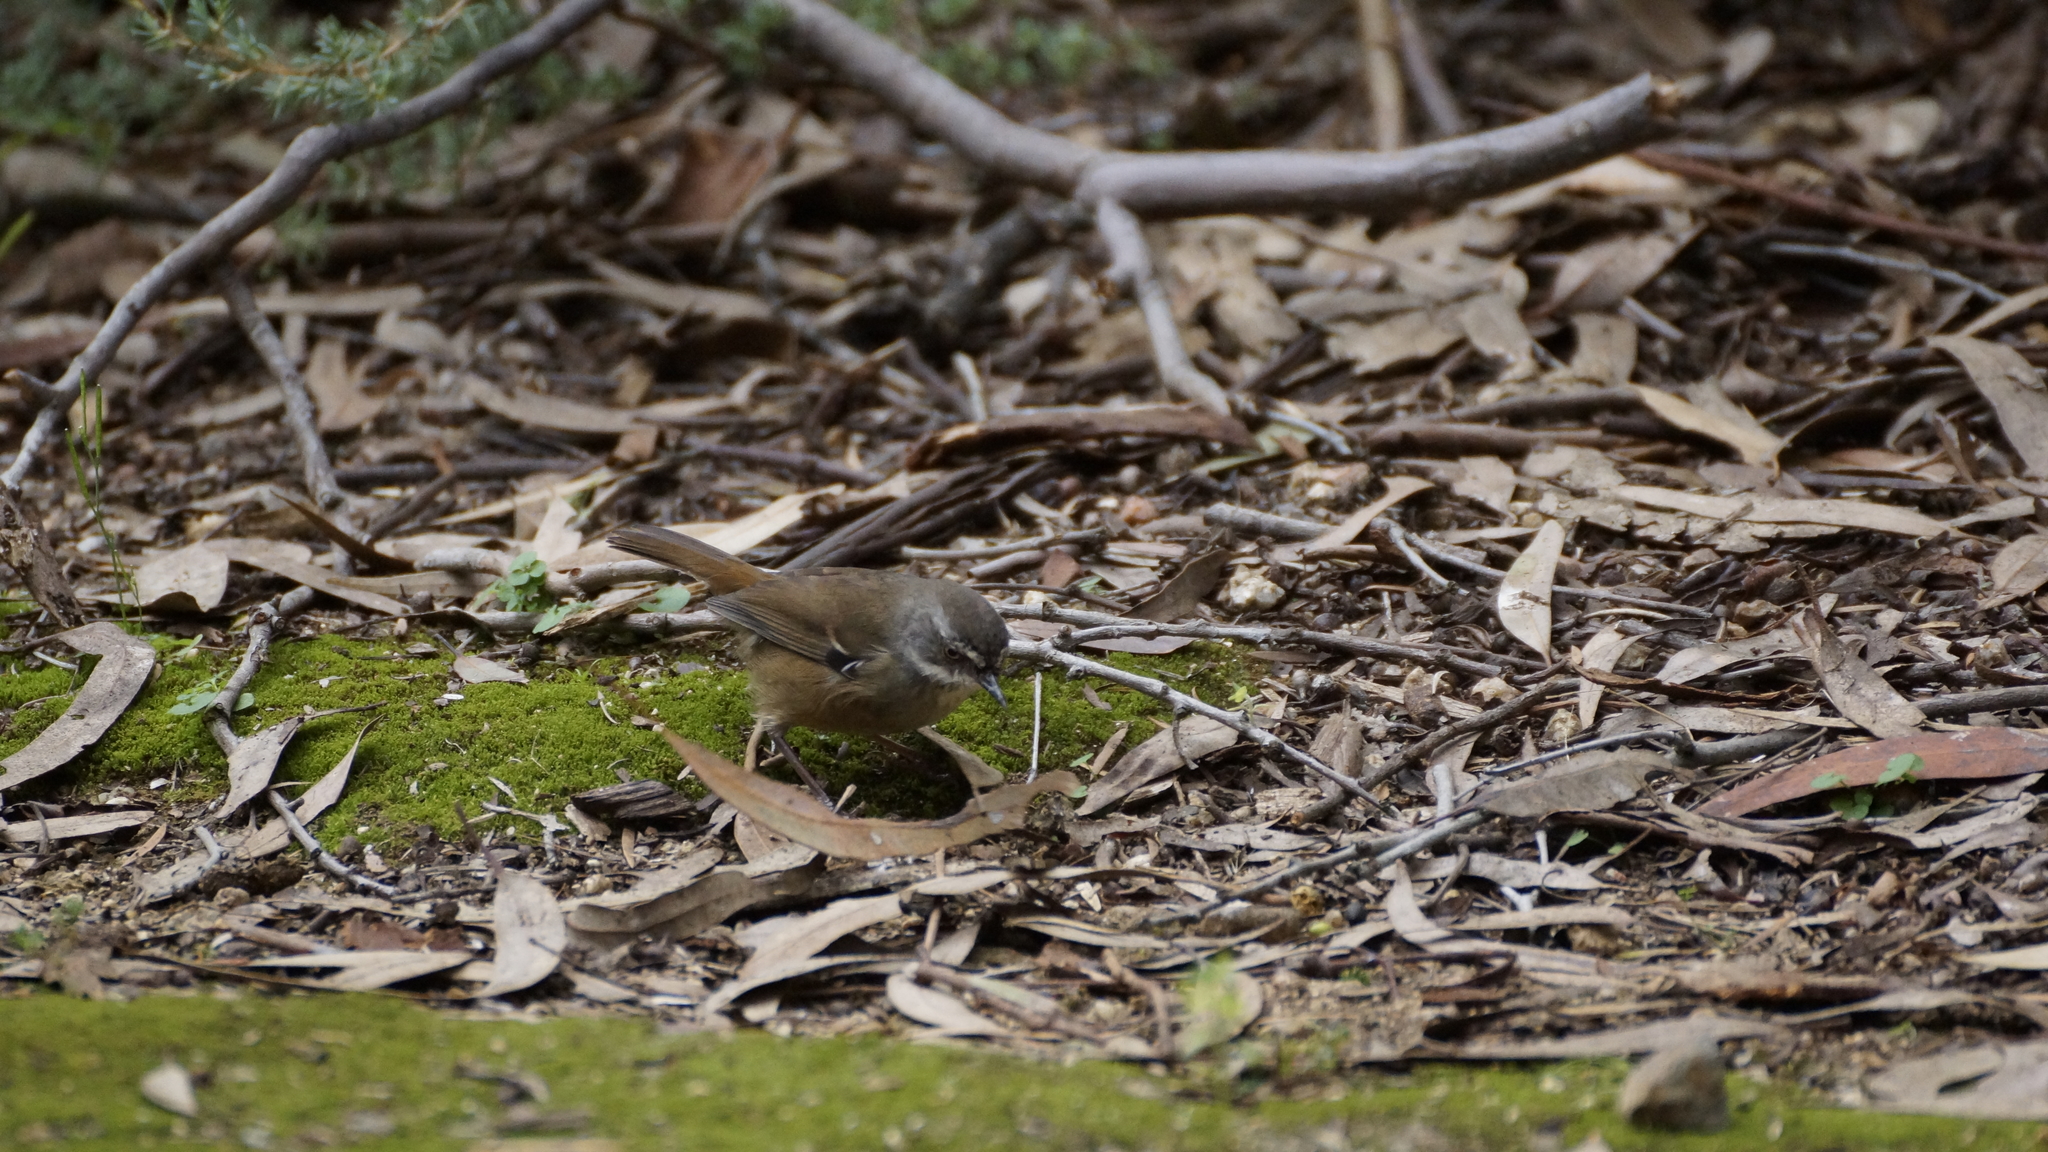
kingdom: Animalia
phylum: Chordata
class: Aves
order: Passeriformes
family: Acanthizidae
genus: Sericornis
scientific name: Sericornis frontalis
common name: White-browed scrubwren
